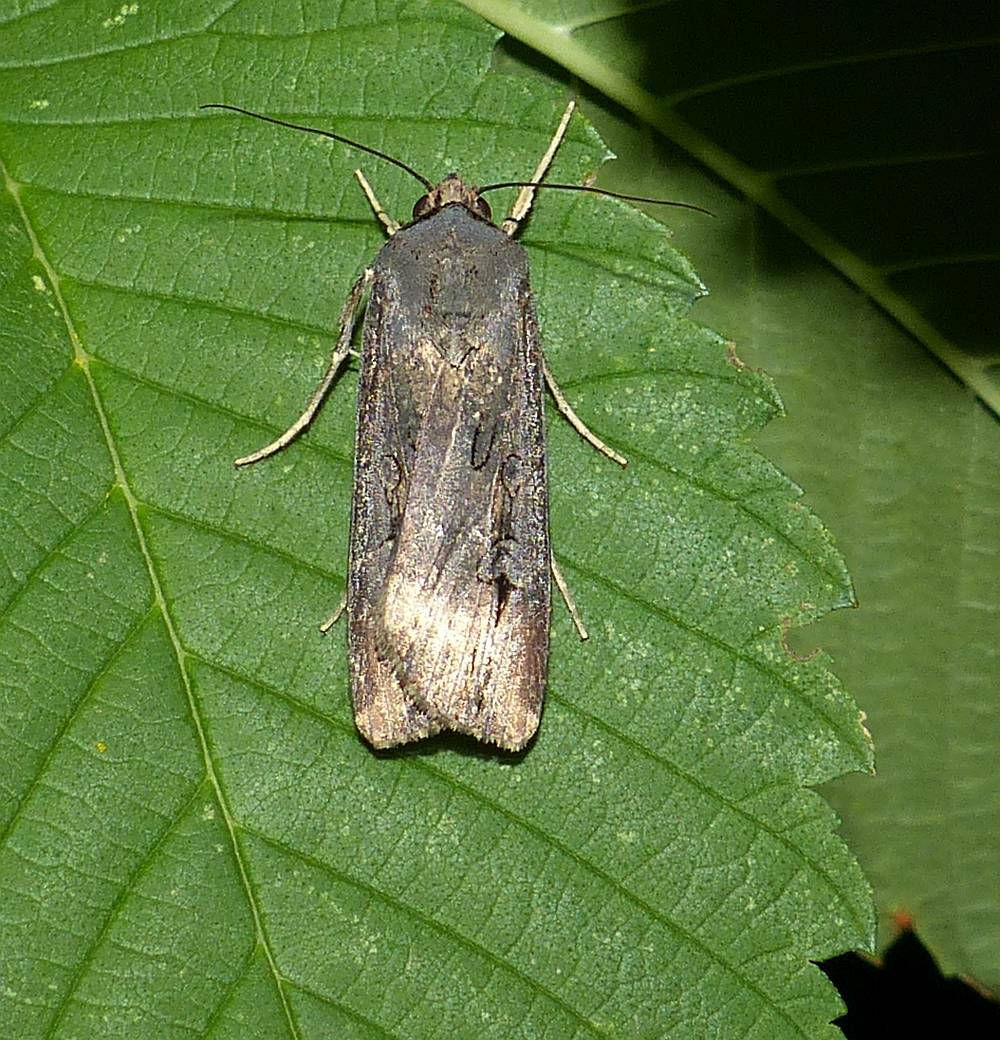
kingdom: Animalia
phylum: Arthropoda
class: Insecta
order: Lepidoptera
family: Noctuidae
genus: Agrotis
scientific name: Agrotis ipsilon
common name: Dark sword-grass
